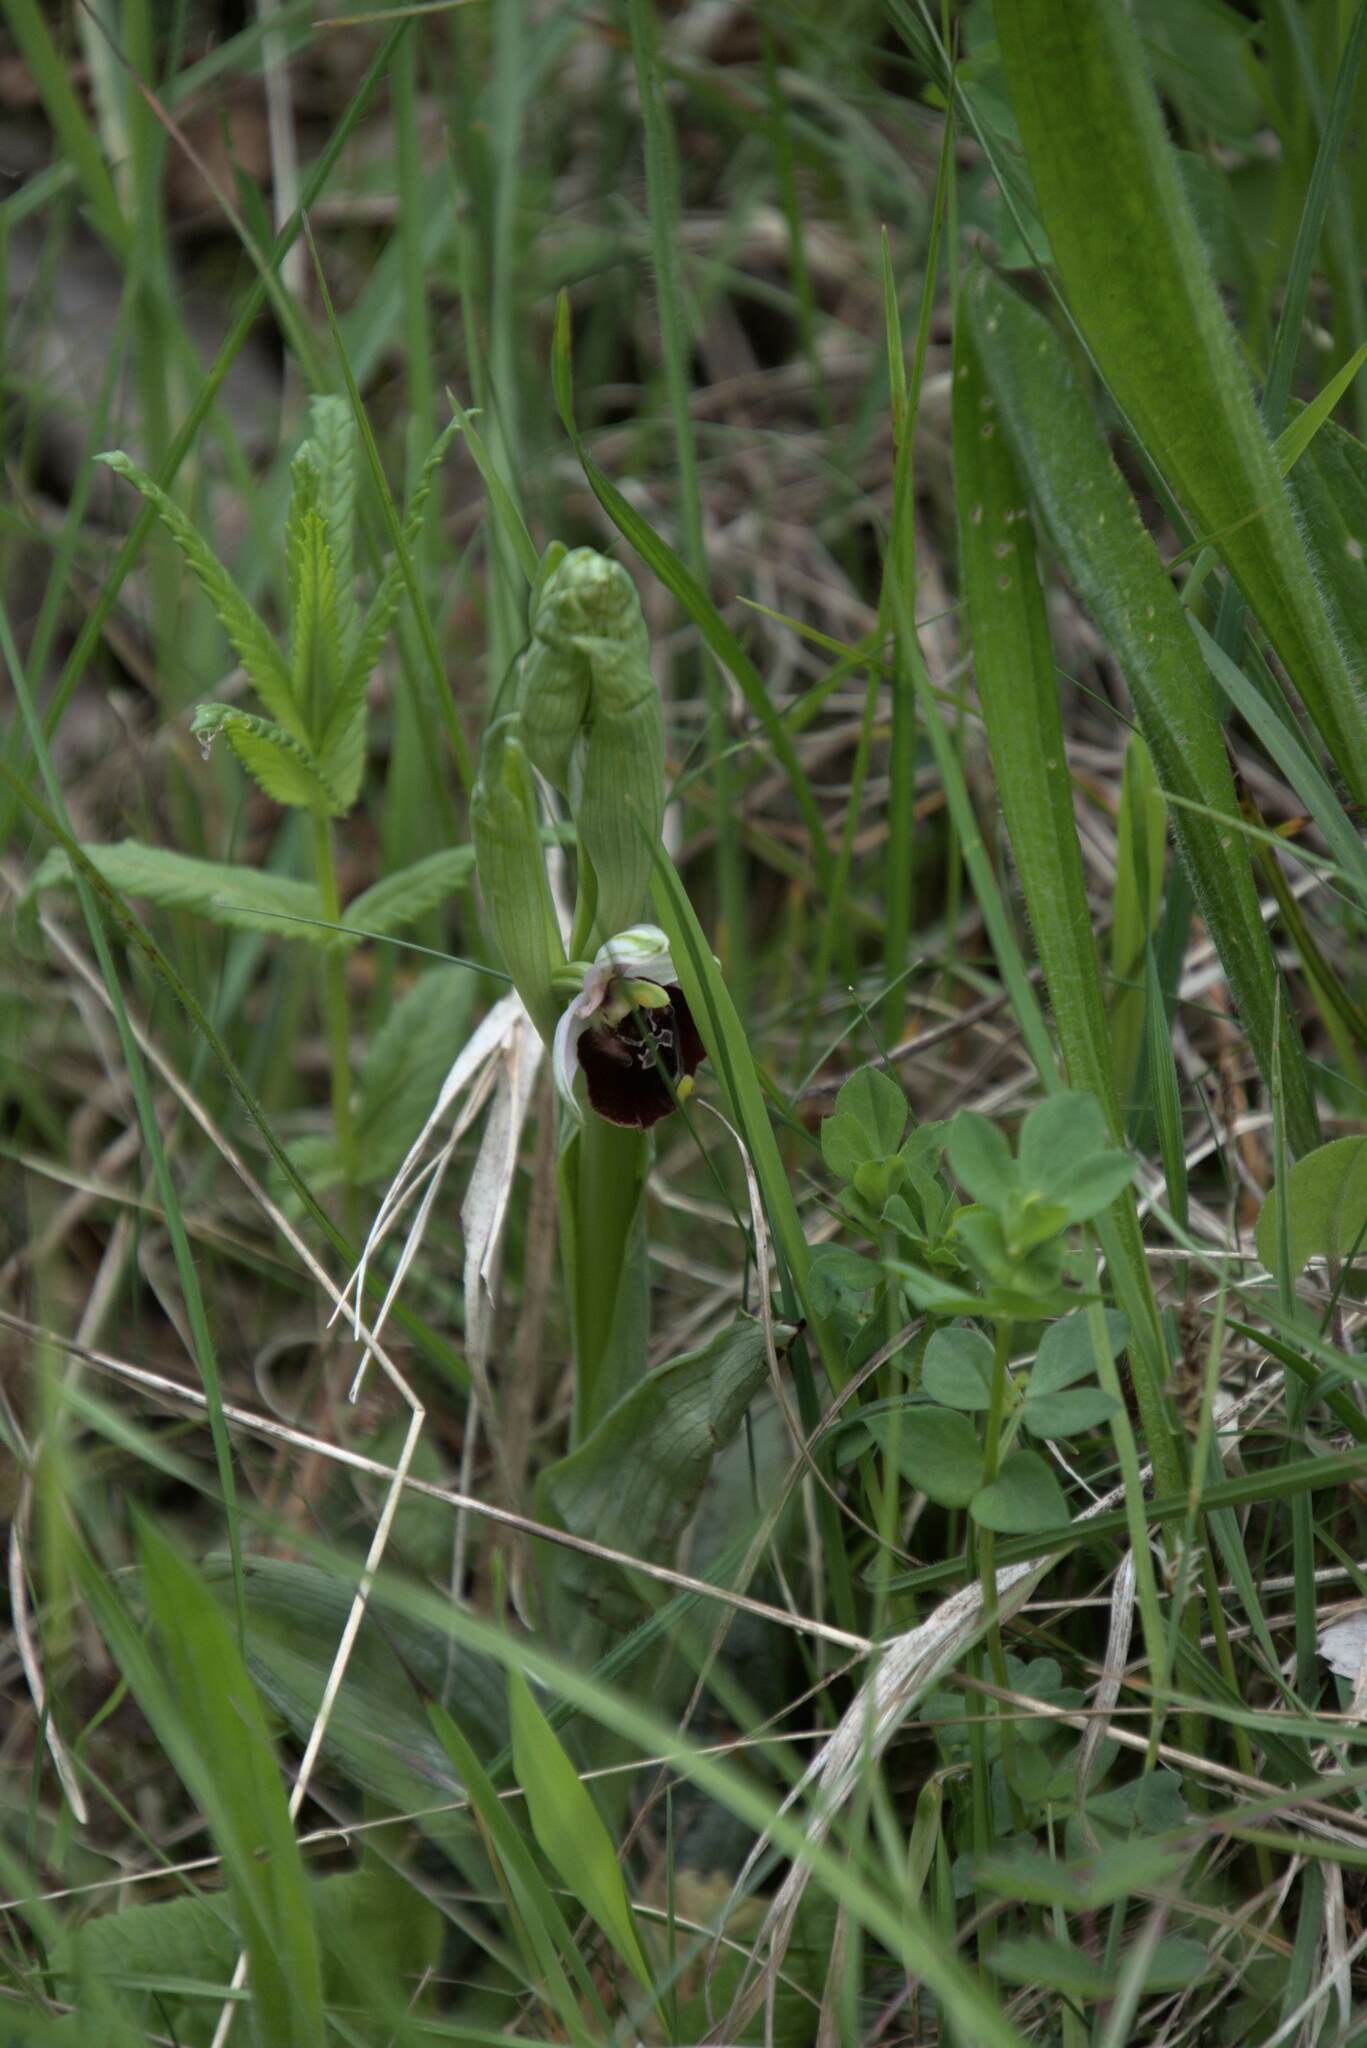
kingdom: Plantae
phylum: Tracheophyta
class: Liliopsida
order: Asparagales
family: Orchidaceae
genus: Ophrys
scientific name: Ophrys holosericea
